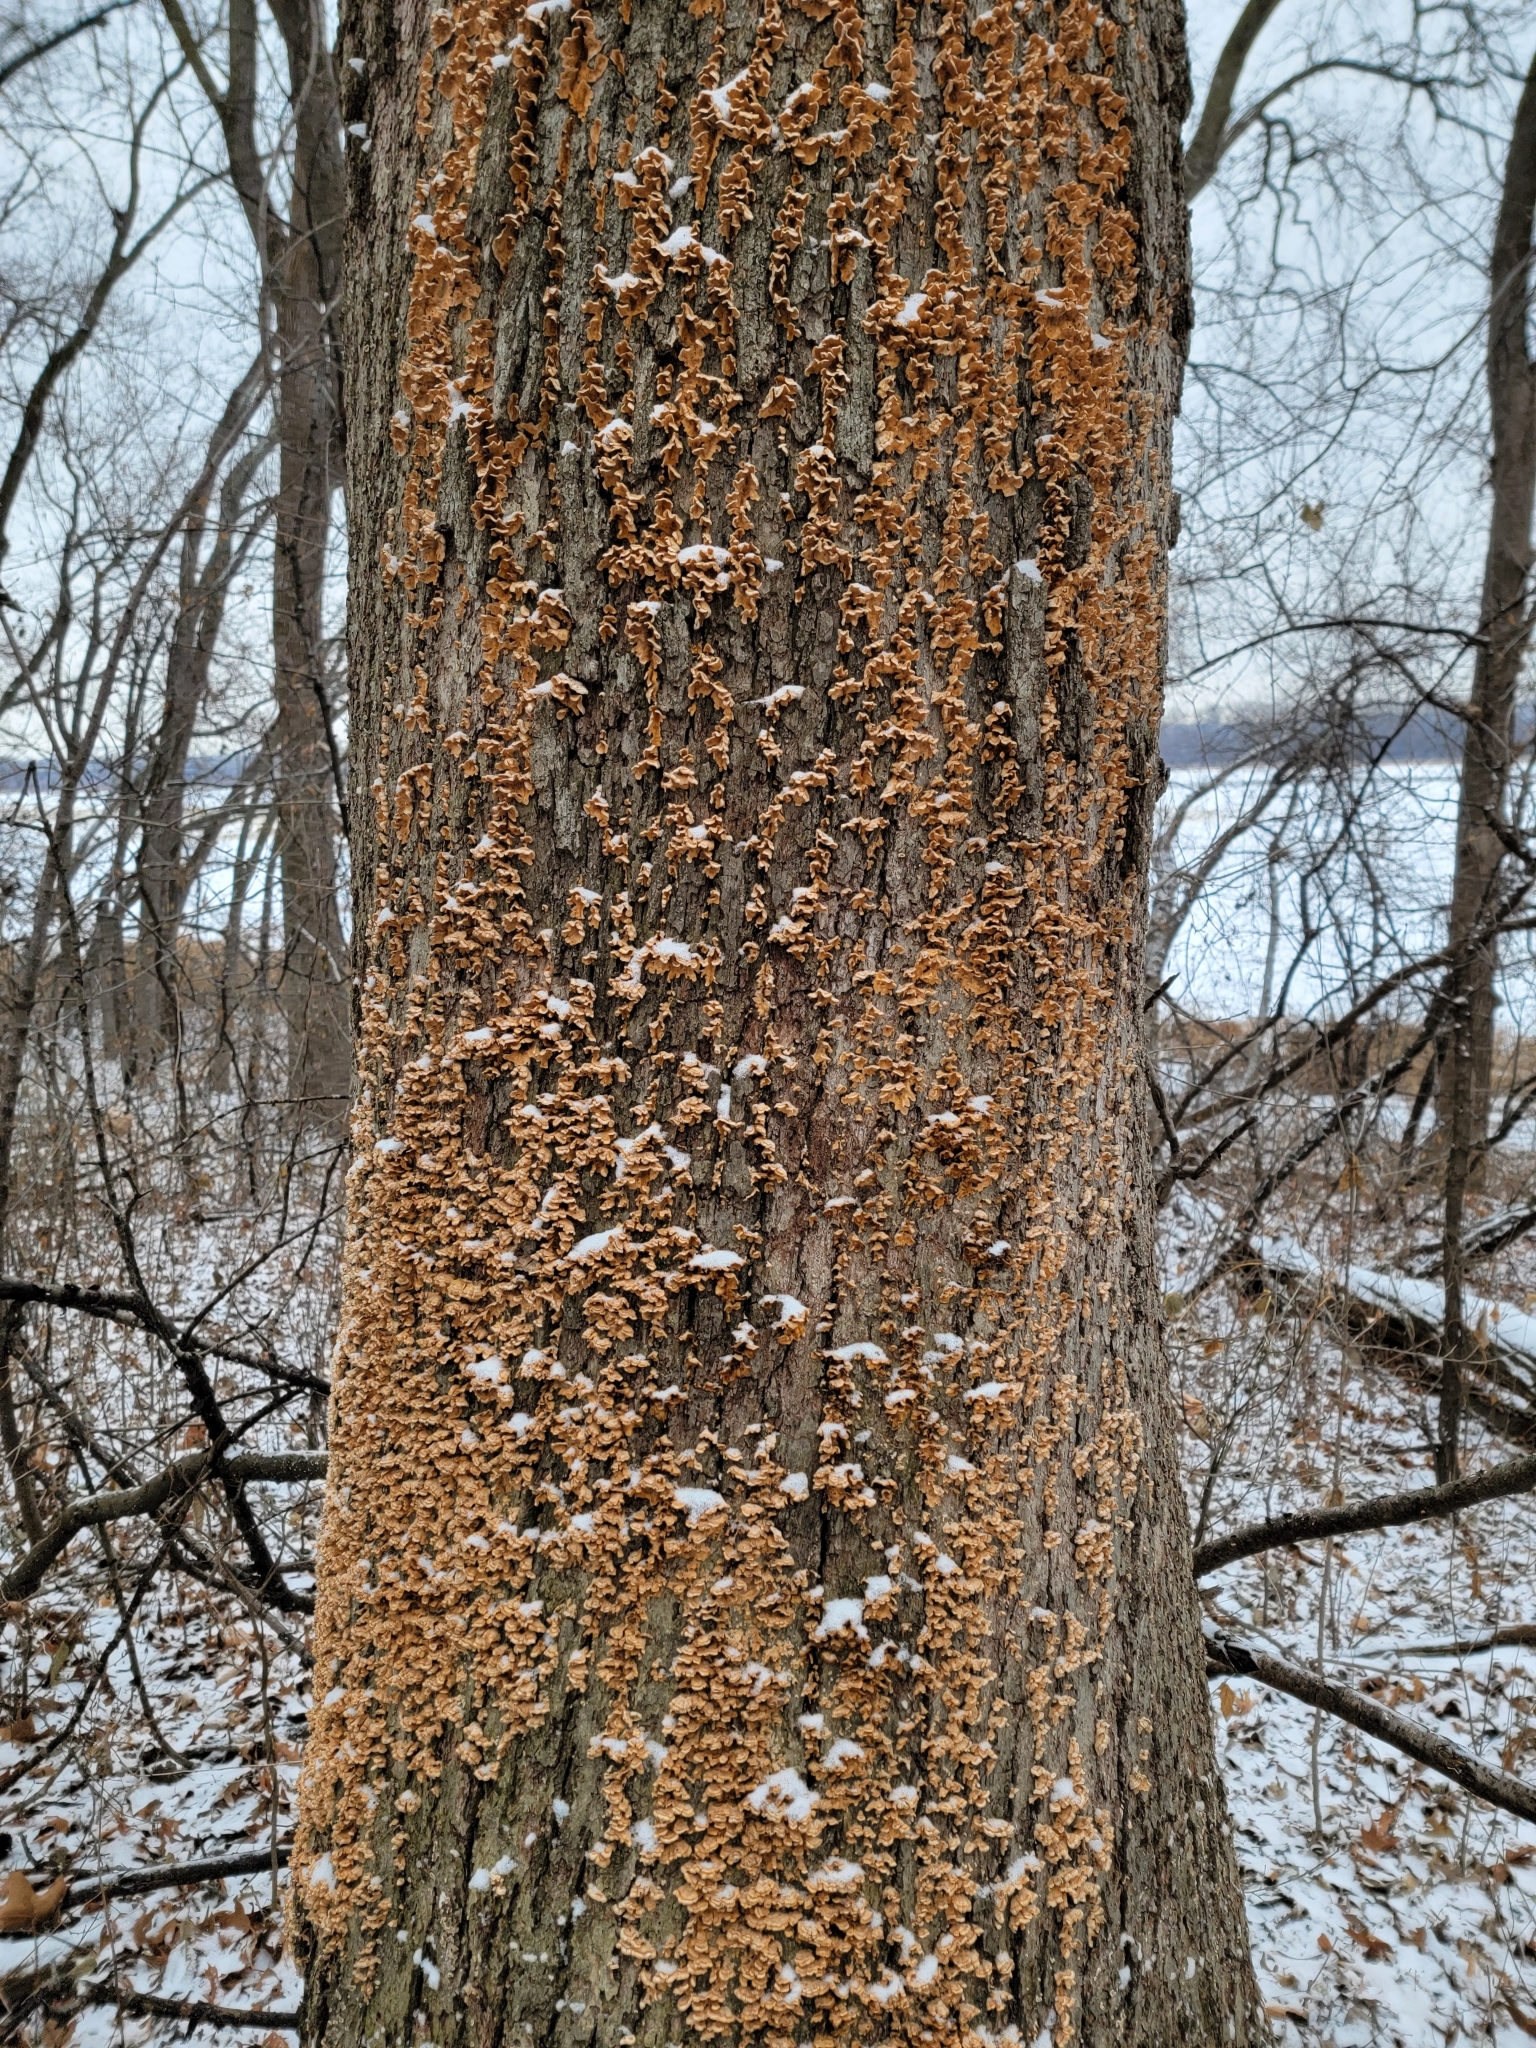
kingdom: Fungi
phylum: Basidiomycota
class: Agaricomycetes
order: Russulales
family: Stereaceae
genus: Stereum
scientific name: Stereum complicatum
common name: Crowded parchment
